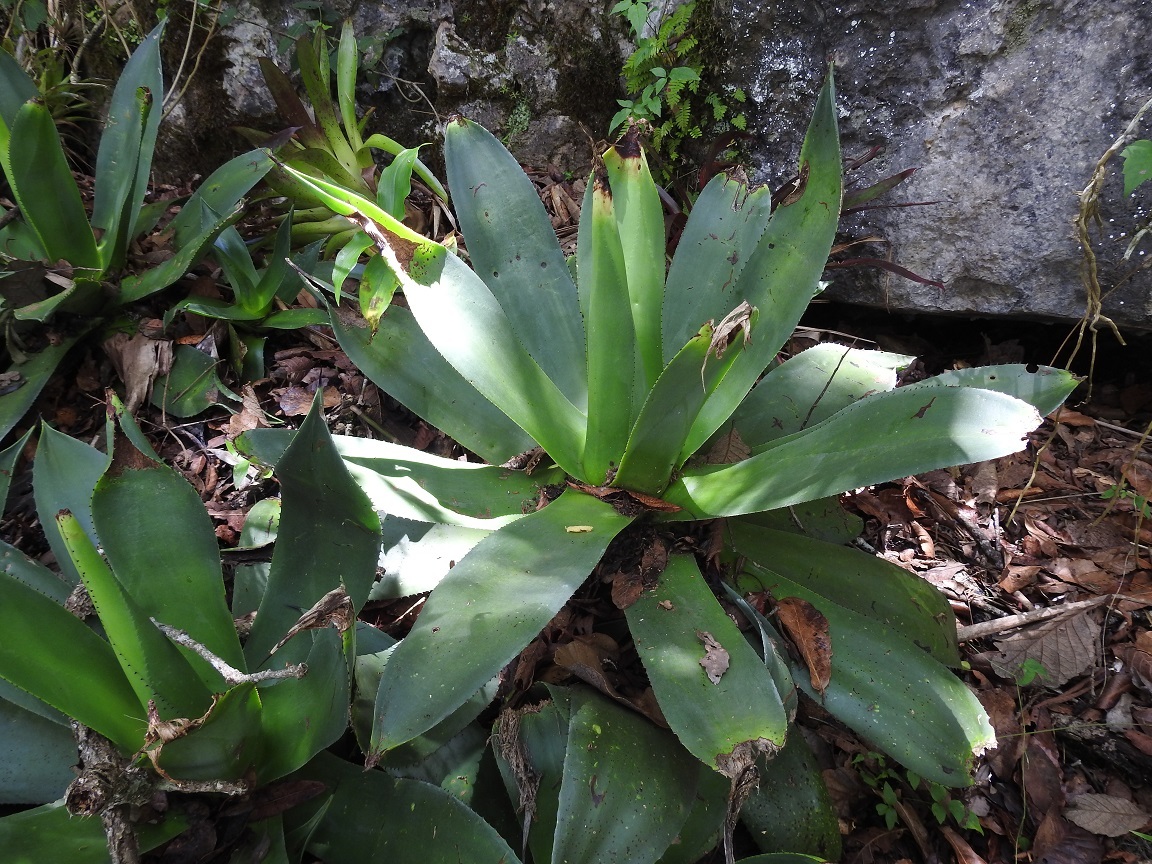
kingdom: Plantae
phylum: Tracheophyta
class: Liliopsida
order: Asparagales
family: Asparagaceae
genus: Agave
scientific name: Agave warelliana
